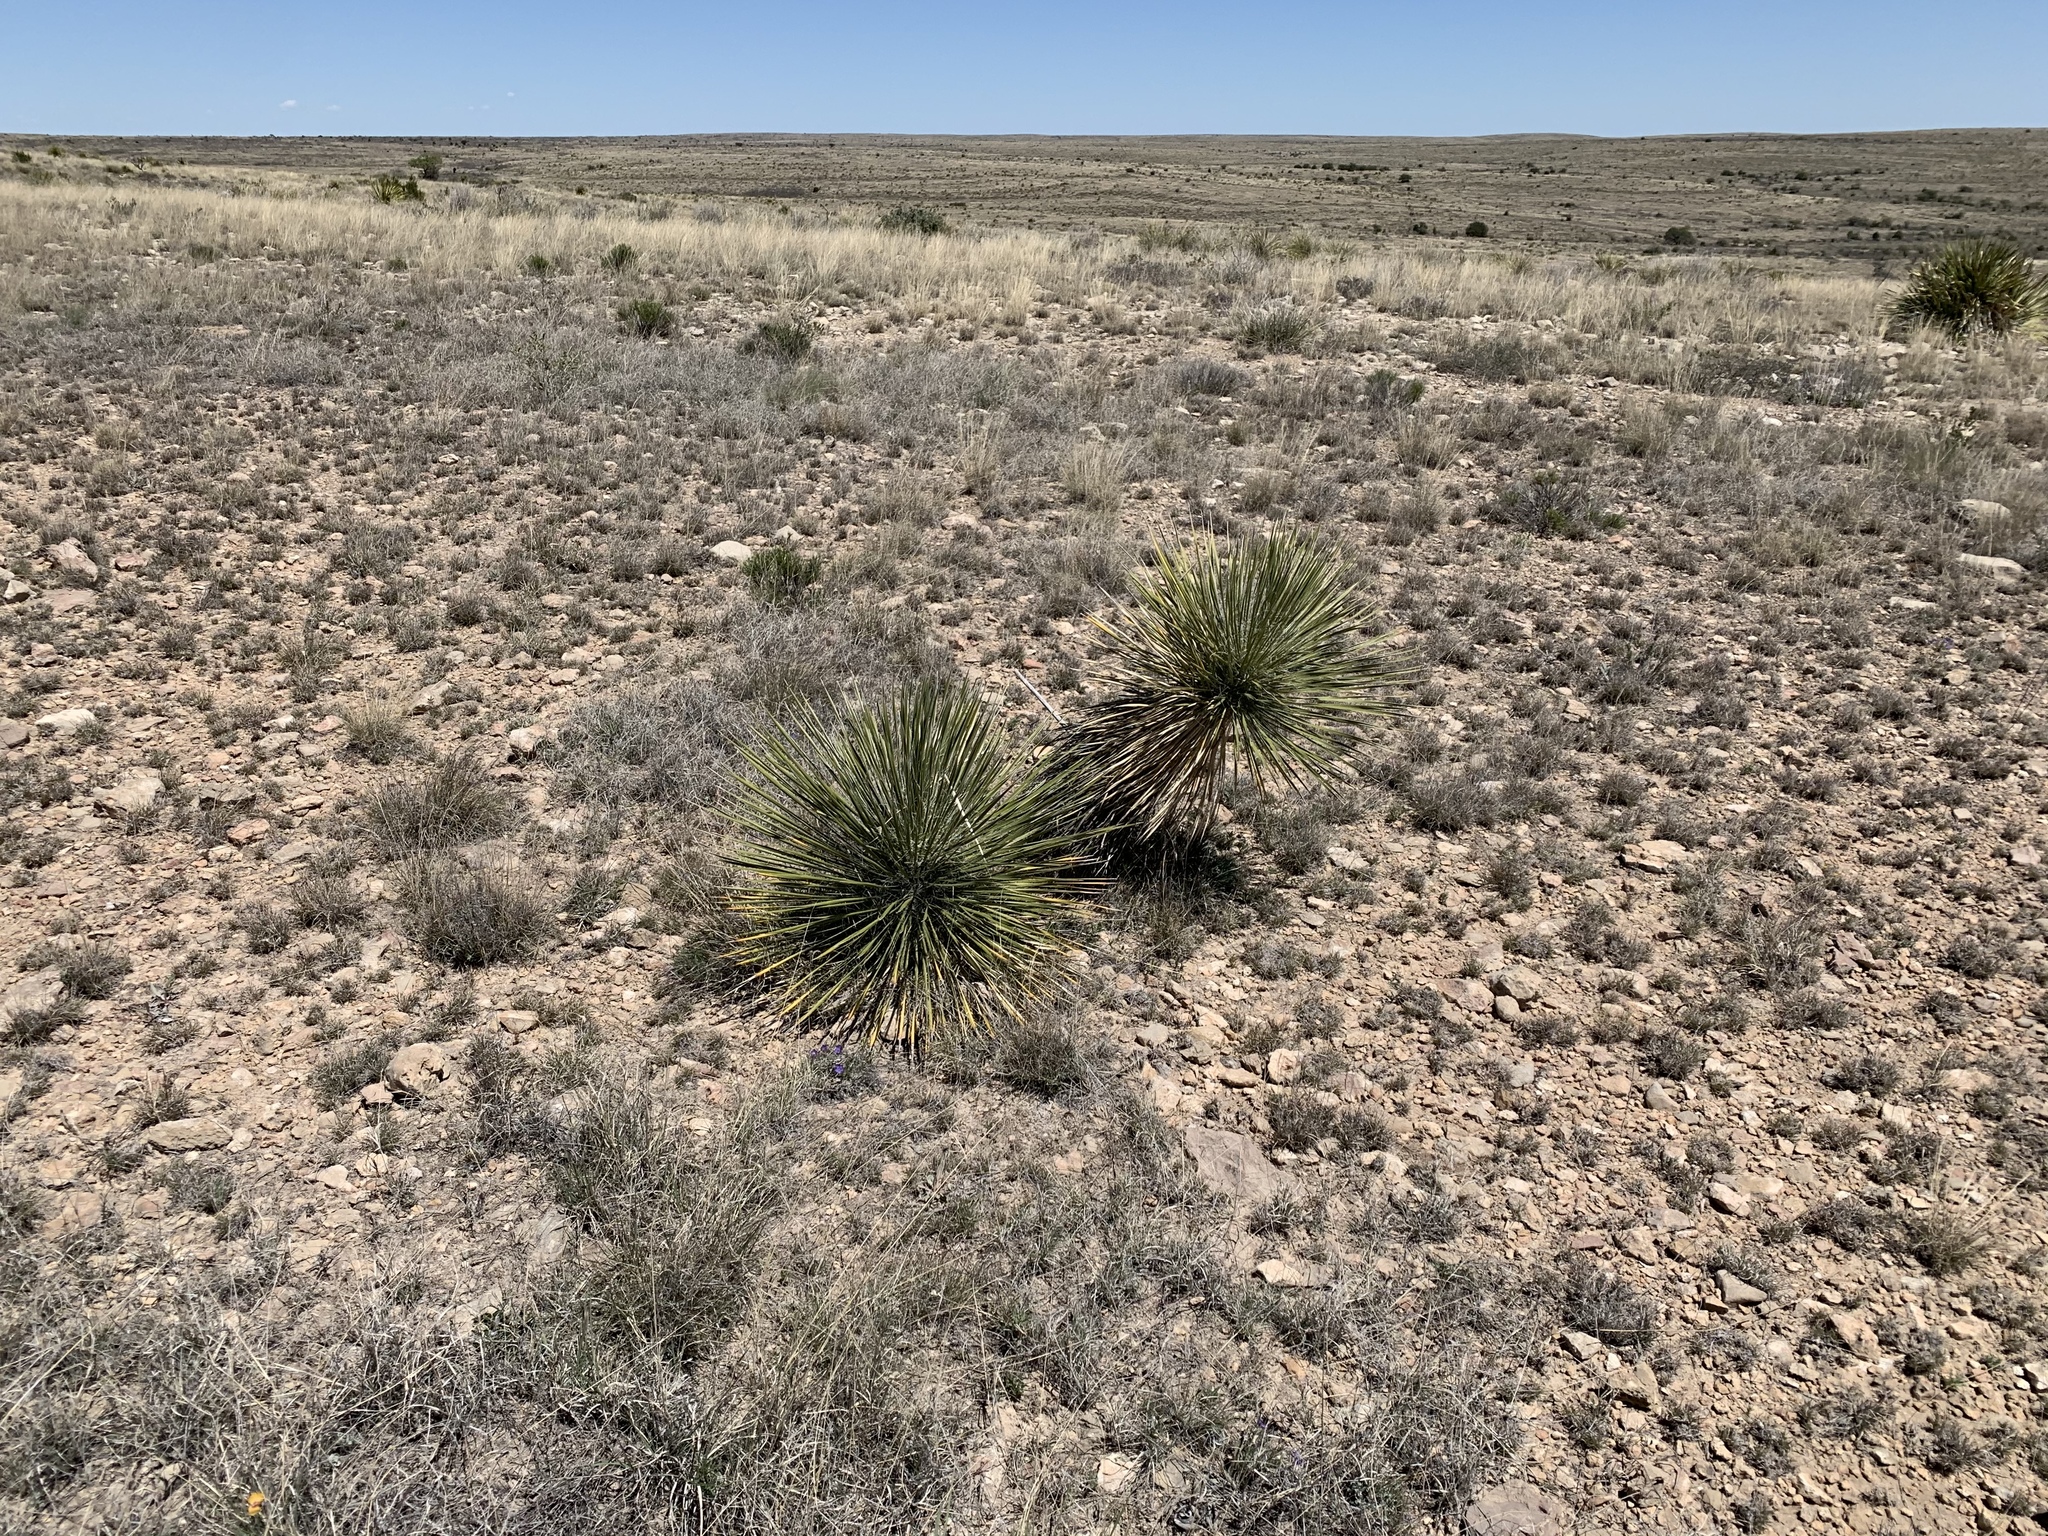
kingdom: Plantae
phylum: Tracheophyta
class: Liliopsida
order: Asparagales
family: Asparagaceae
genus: Yucca
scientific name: Yucca elata
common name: Palmella
